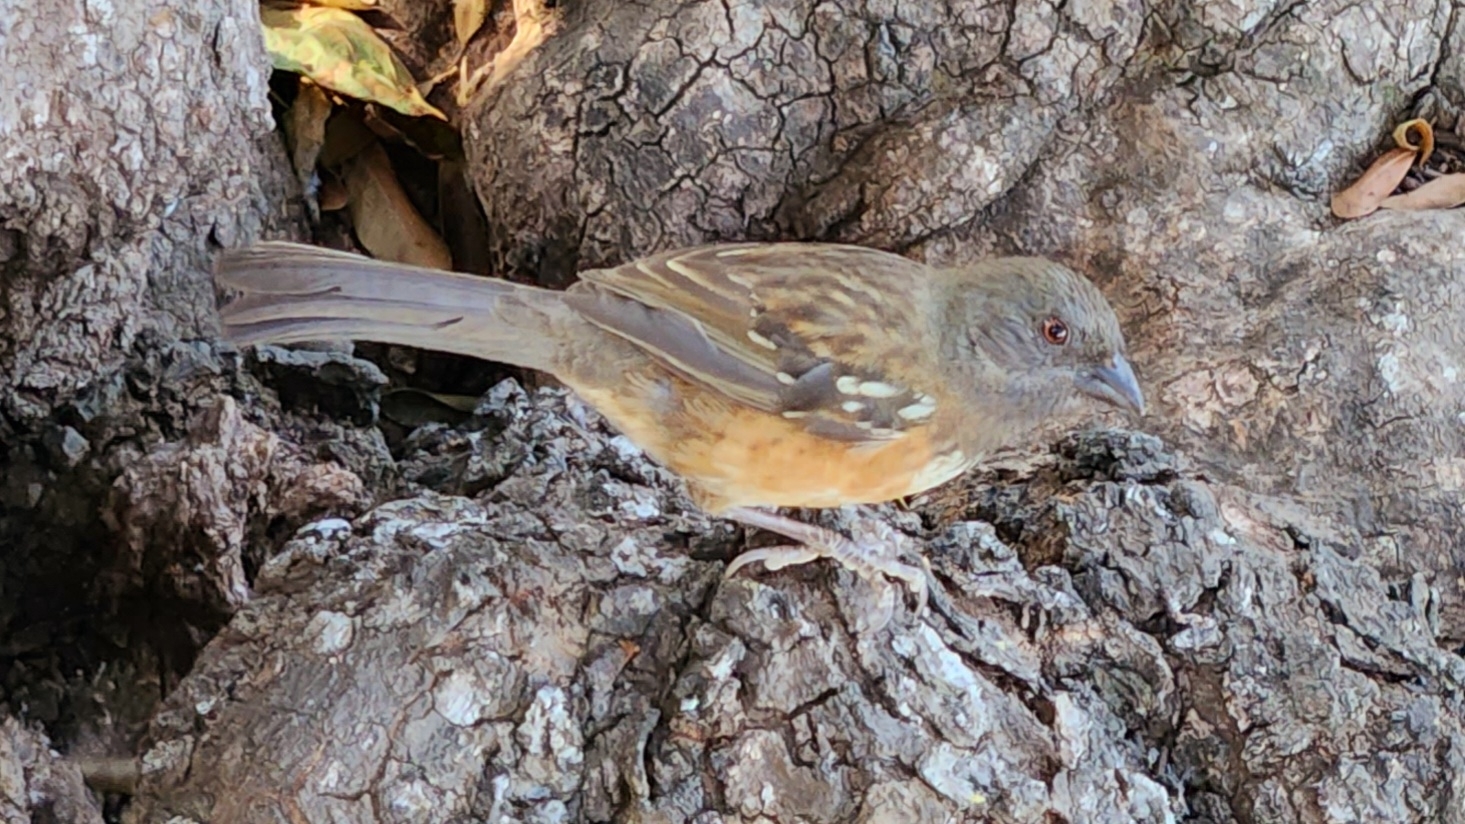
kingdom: Animalia
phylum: Chordata
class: Aves
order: Passeriformes
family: Passerellidae
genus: Pipilo
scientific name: Pipilo maculatus
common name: Spotted towhee
